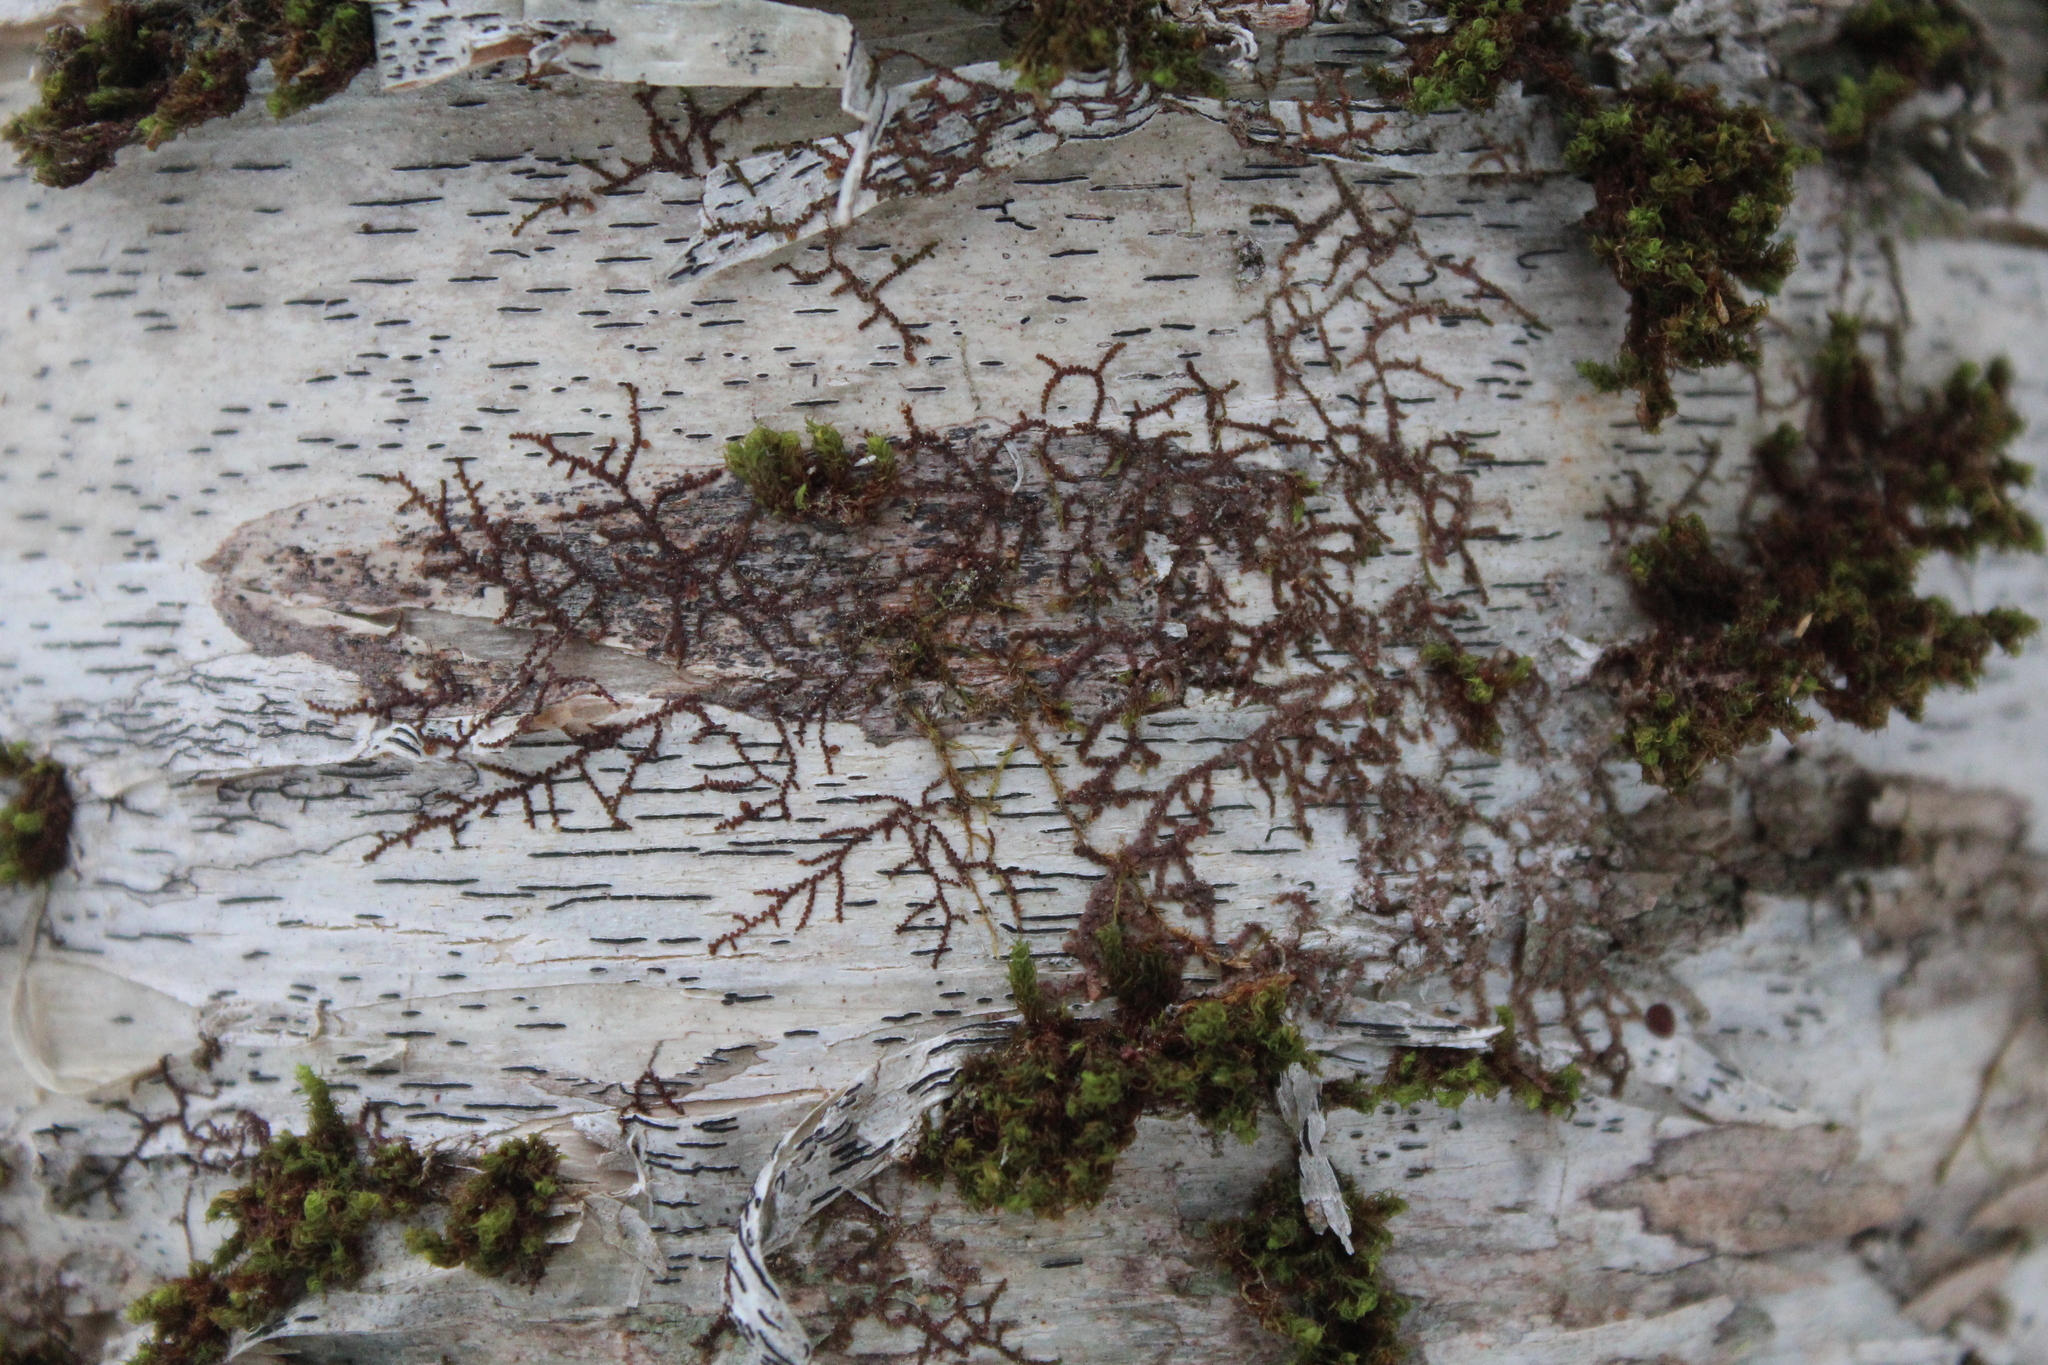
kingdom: Plantae
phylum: Marchantiophyta
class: Jungermanniopsida
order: Porellales
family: Frullaniaceae
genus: Frullania
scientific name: Frullania eboracensis
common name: New york scalewort
